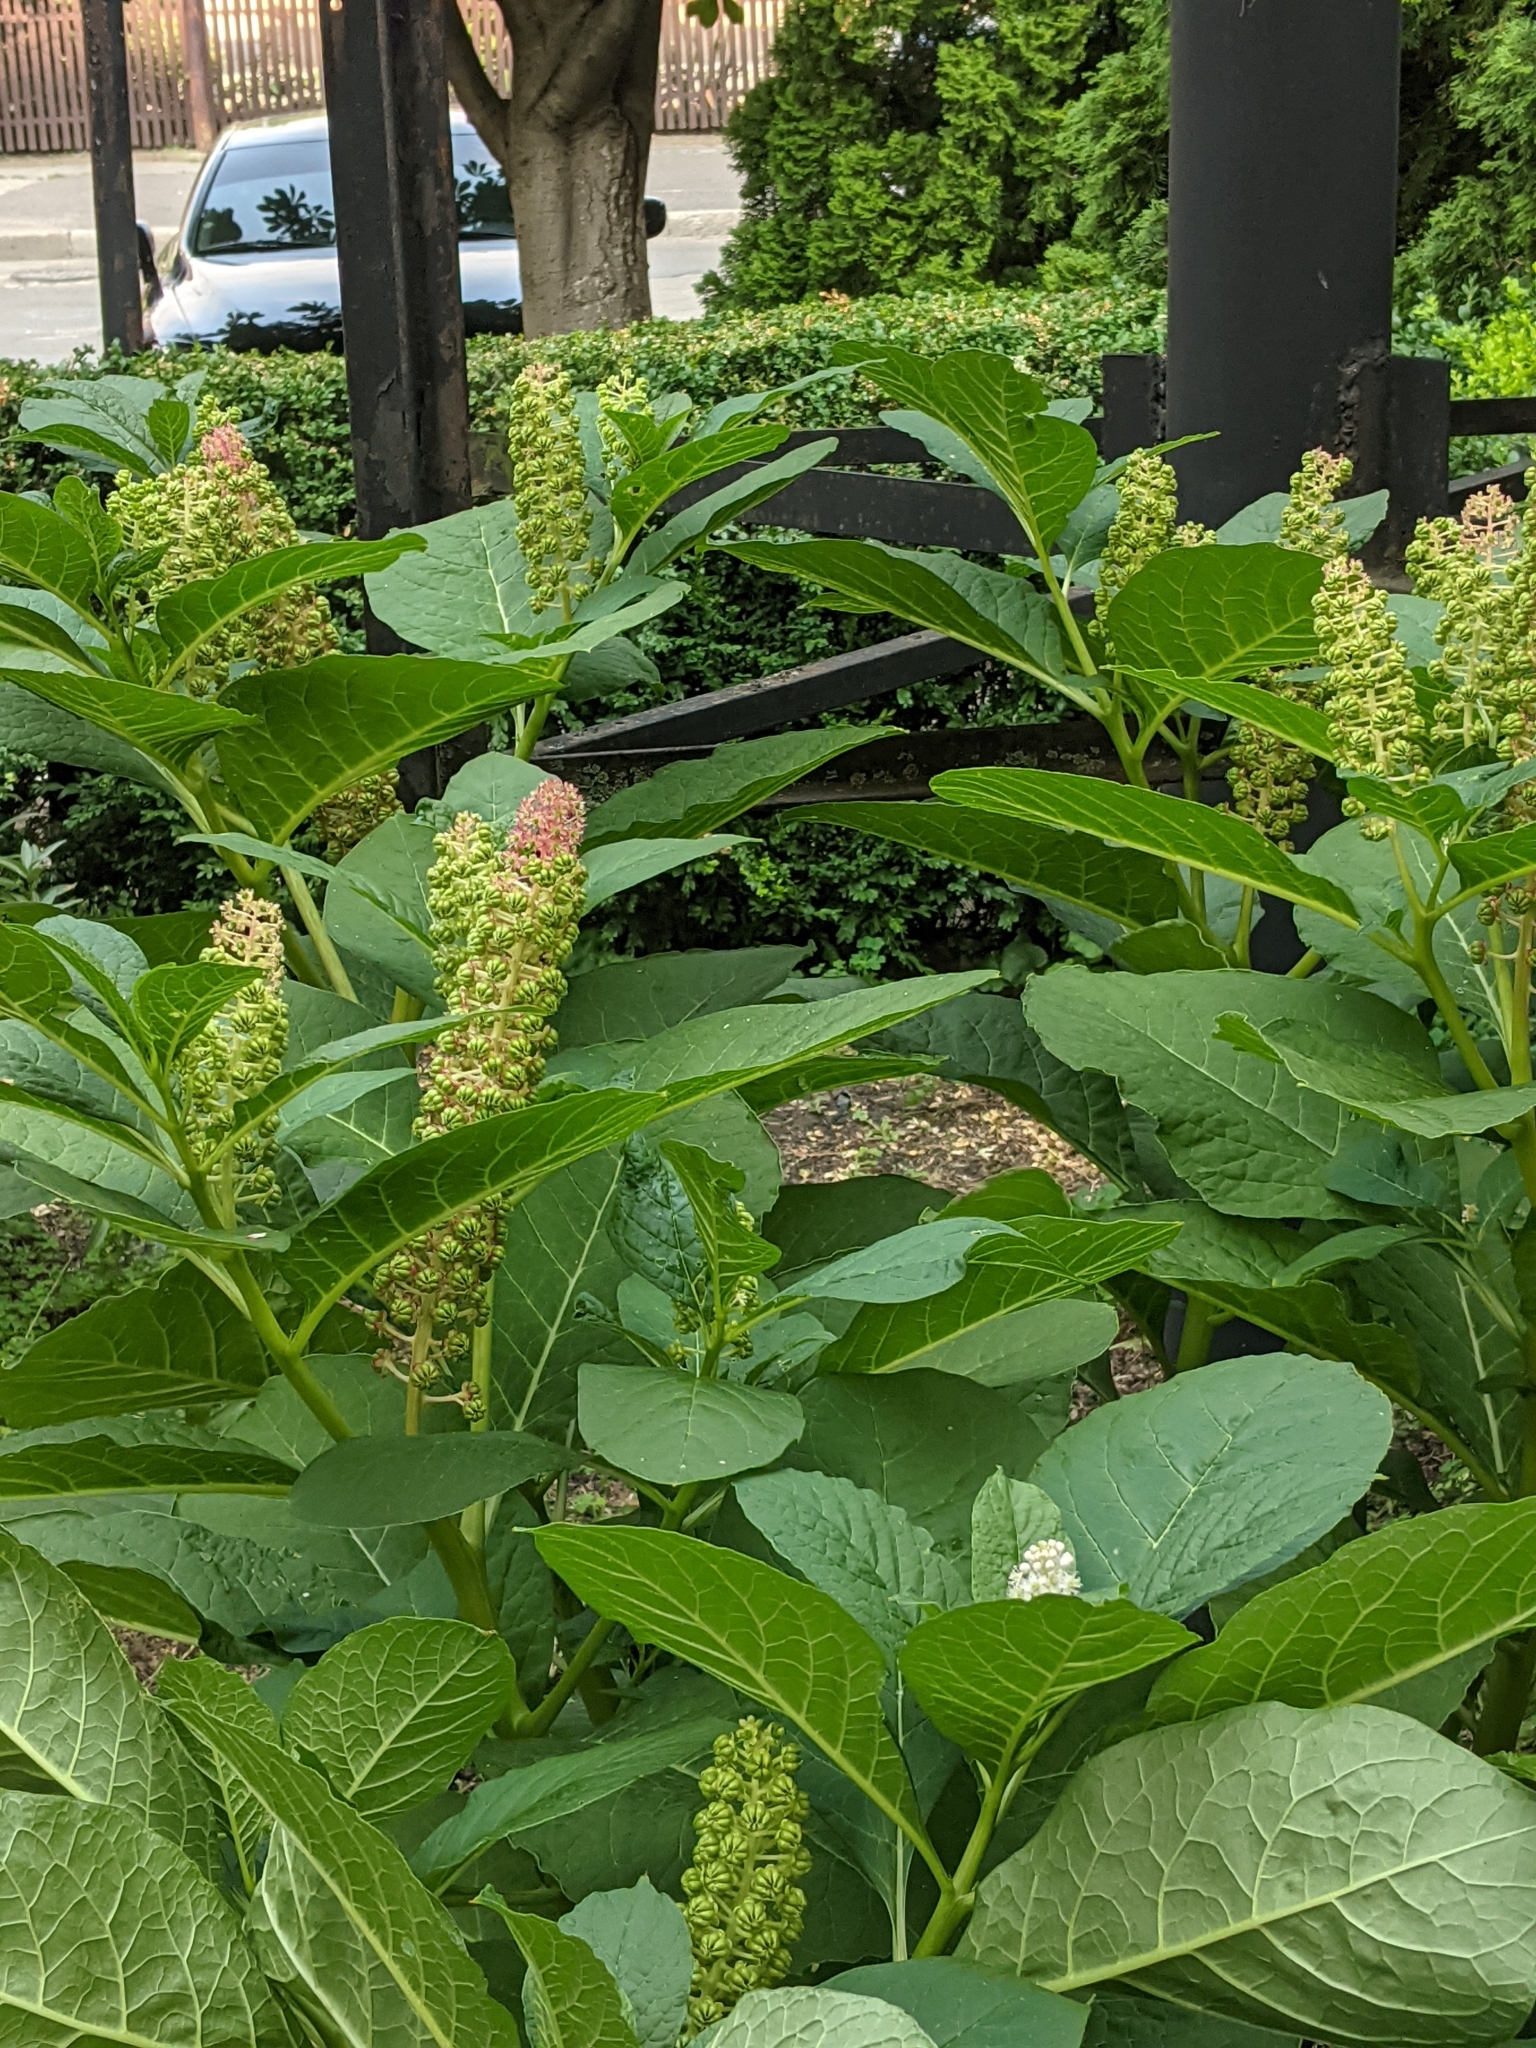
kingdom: Plantae
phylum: Tracheophyta
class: Magnoliopsida
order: Caryophyllales
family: Phytolaccaceae
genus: Phytolacca
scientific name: Phytolacca acinosa
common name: Indian pokeweed
